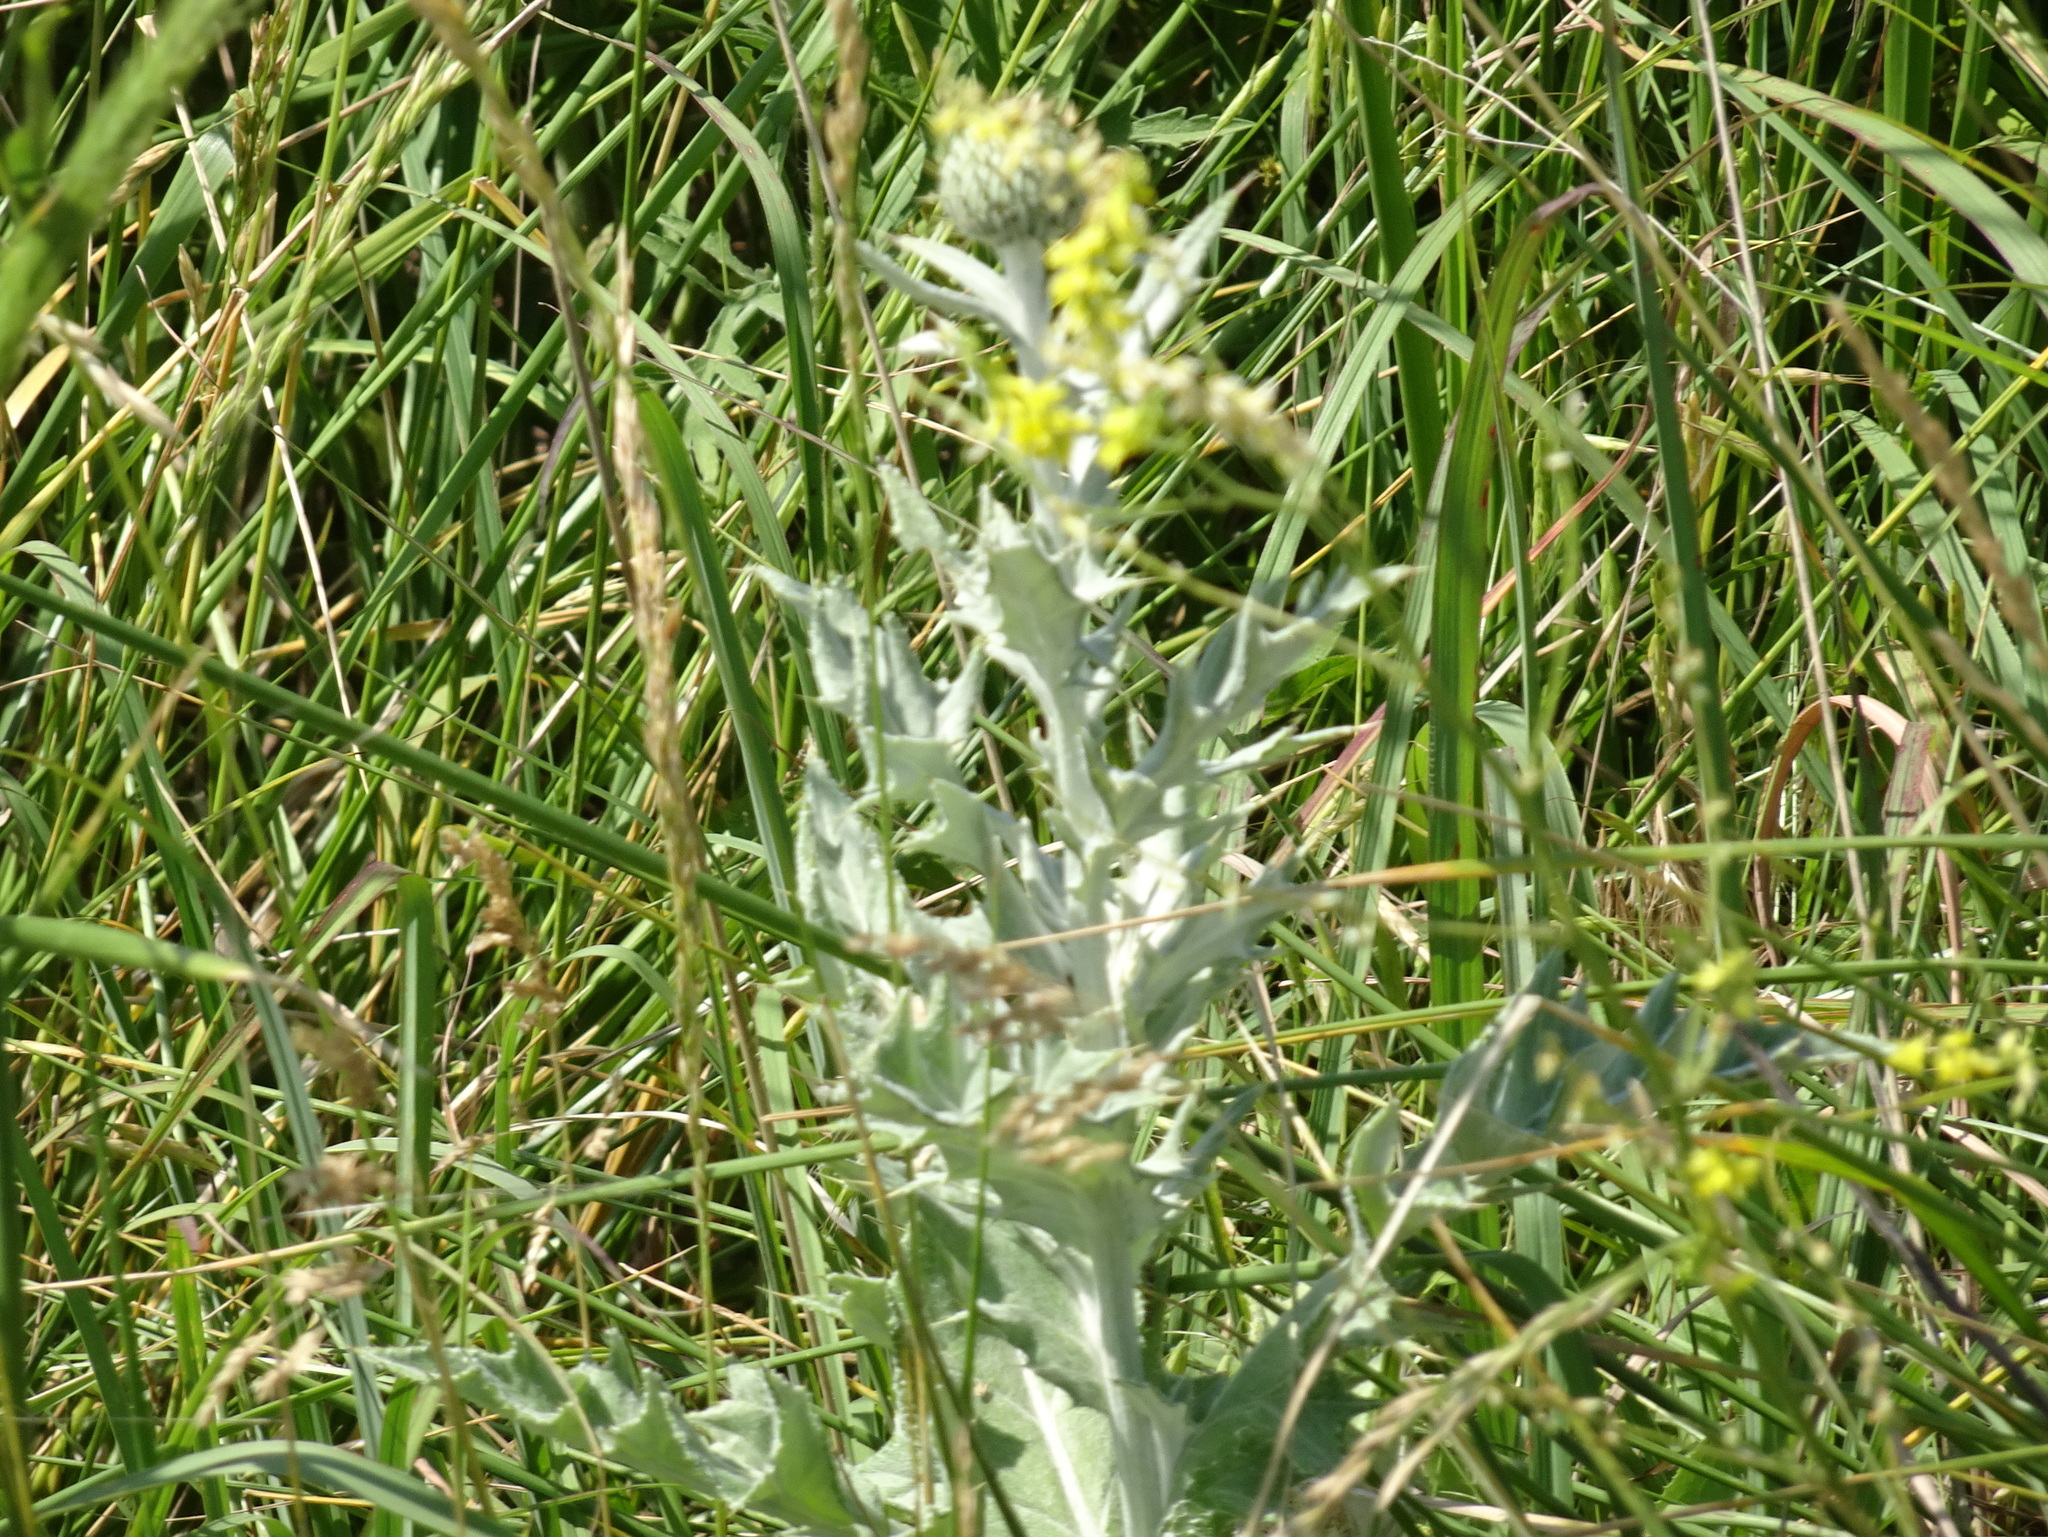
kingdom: Plantae
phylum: Tracheophyta
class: Magnoliopsida
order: Asterales
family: Asteraceae
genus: Cirsium
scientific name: Cirsium undulatum
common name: Pasture thistle
